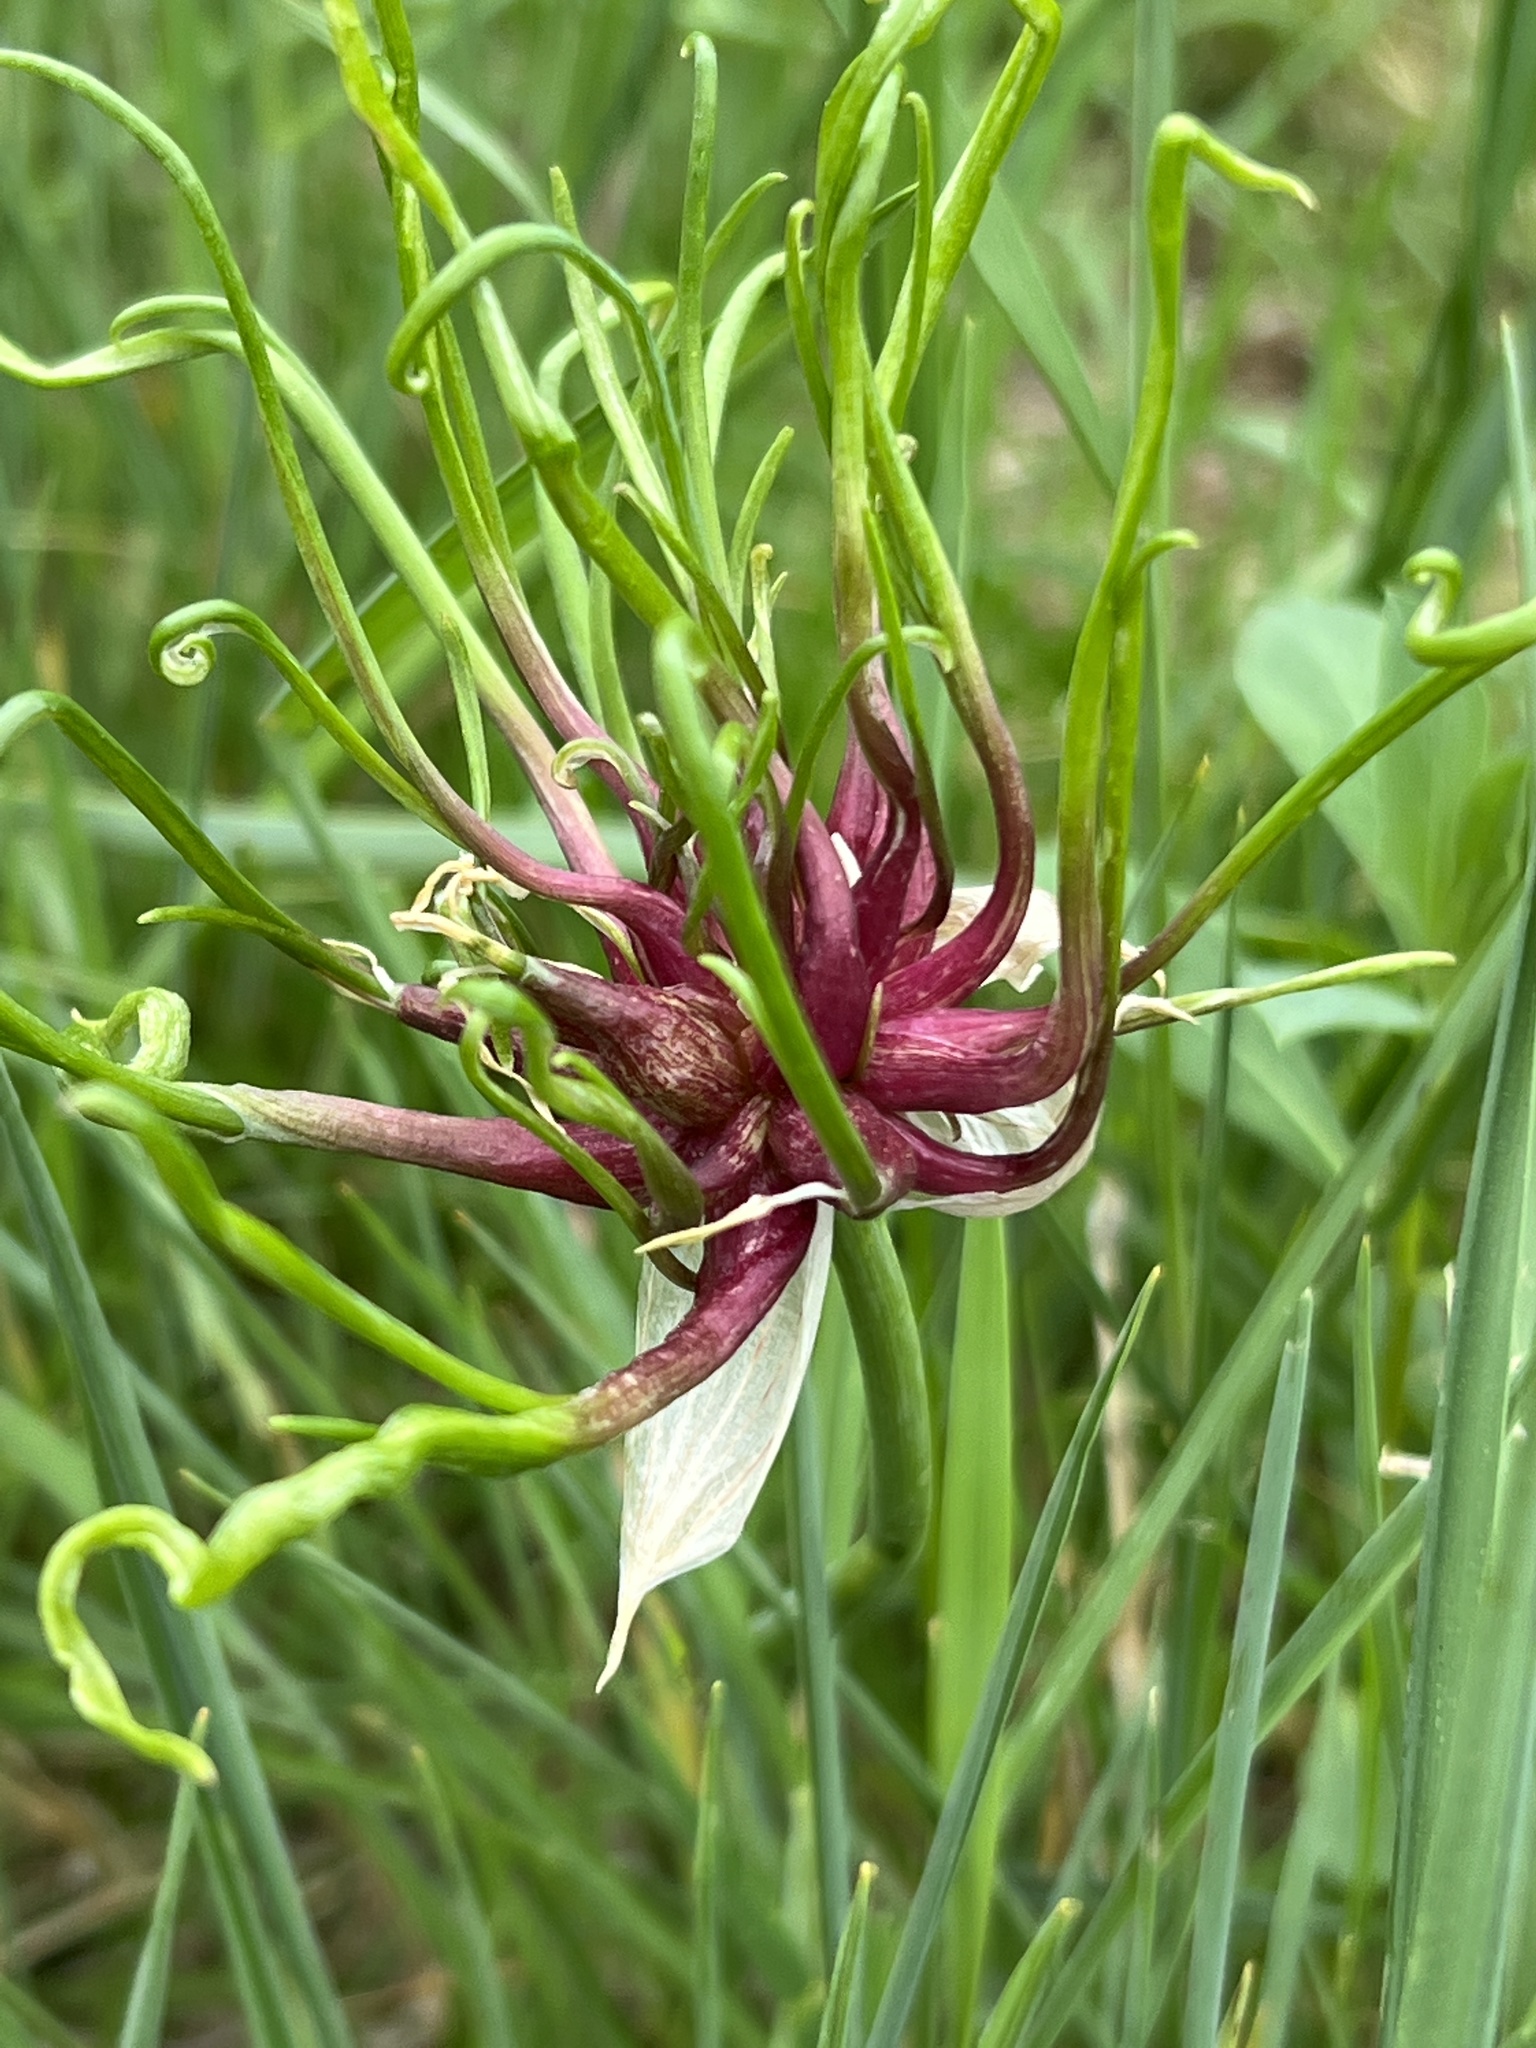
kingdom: Plantae
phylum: Tracheophyta
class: Liliopsida
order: Asparagales
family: Amaryllidaceae
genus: Allium
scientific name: Allium vineale
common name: Crow garlic
